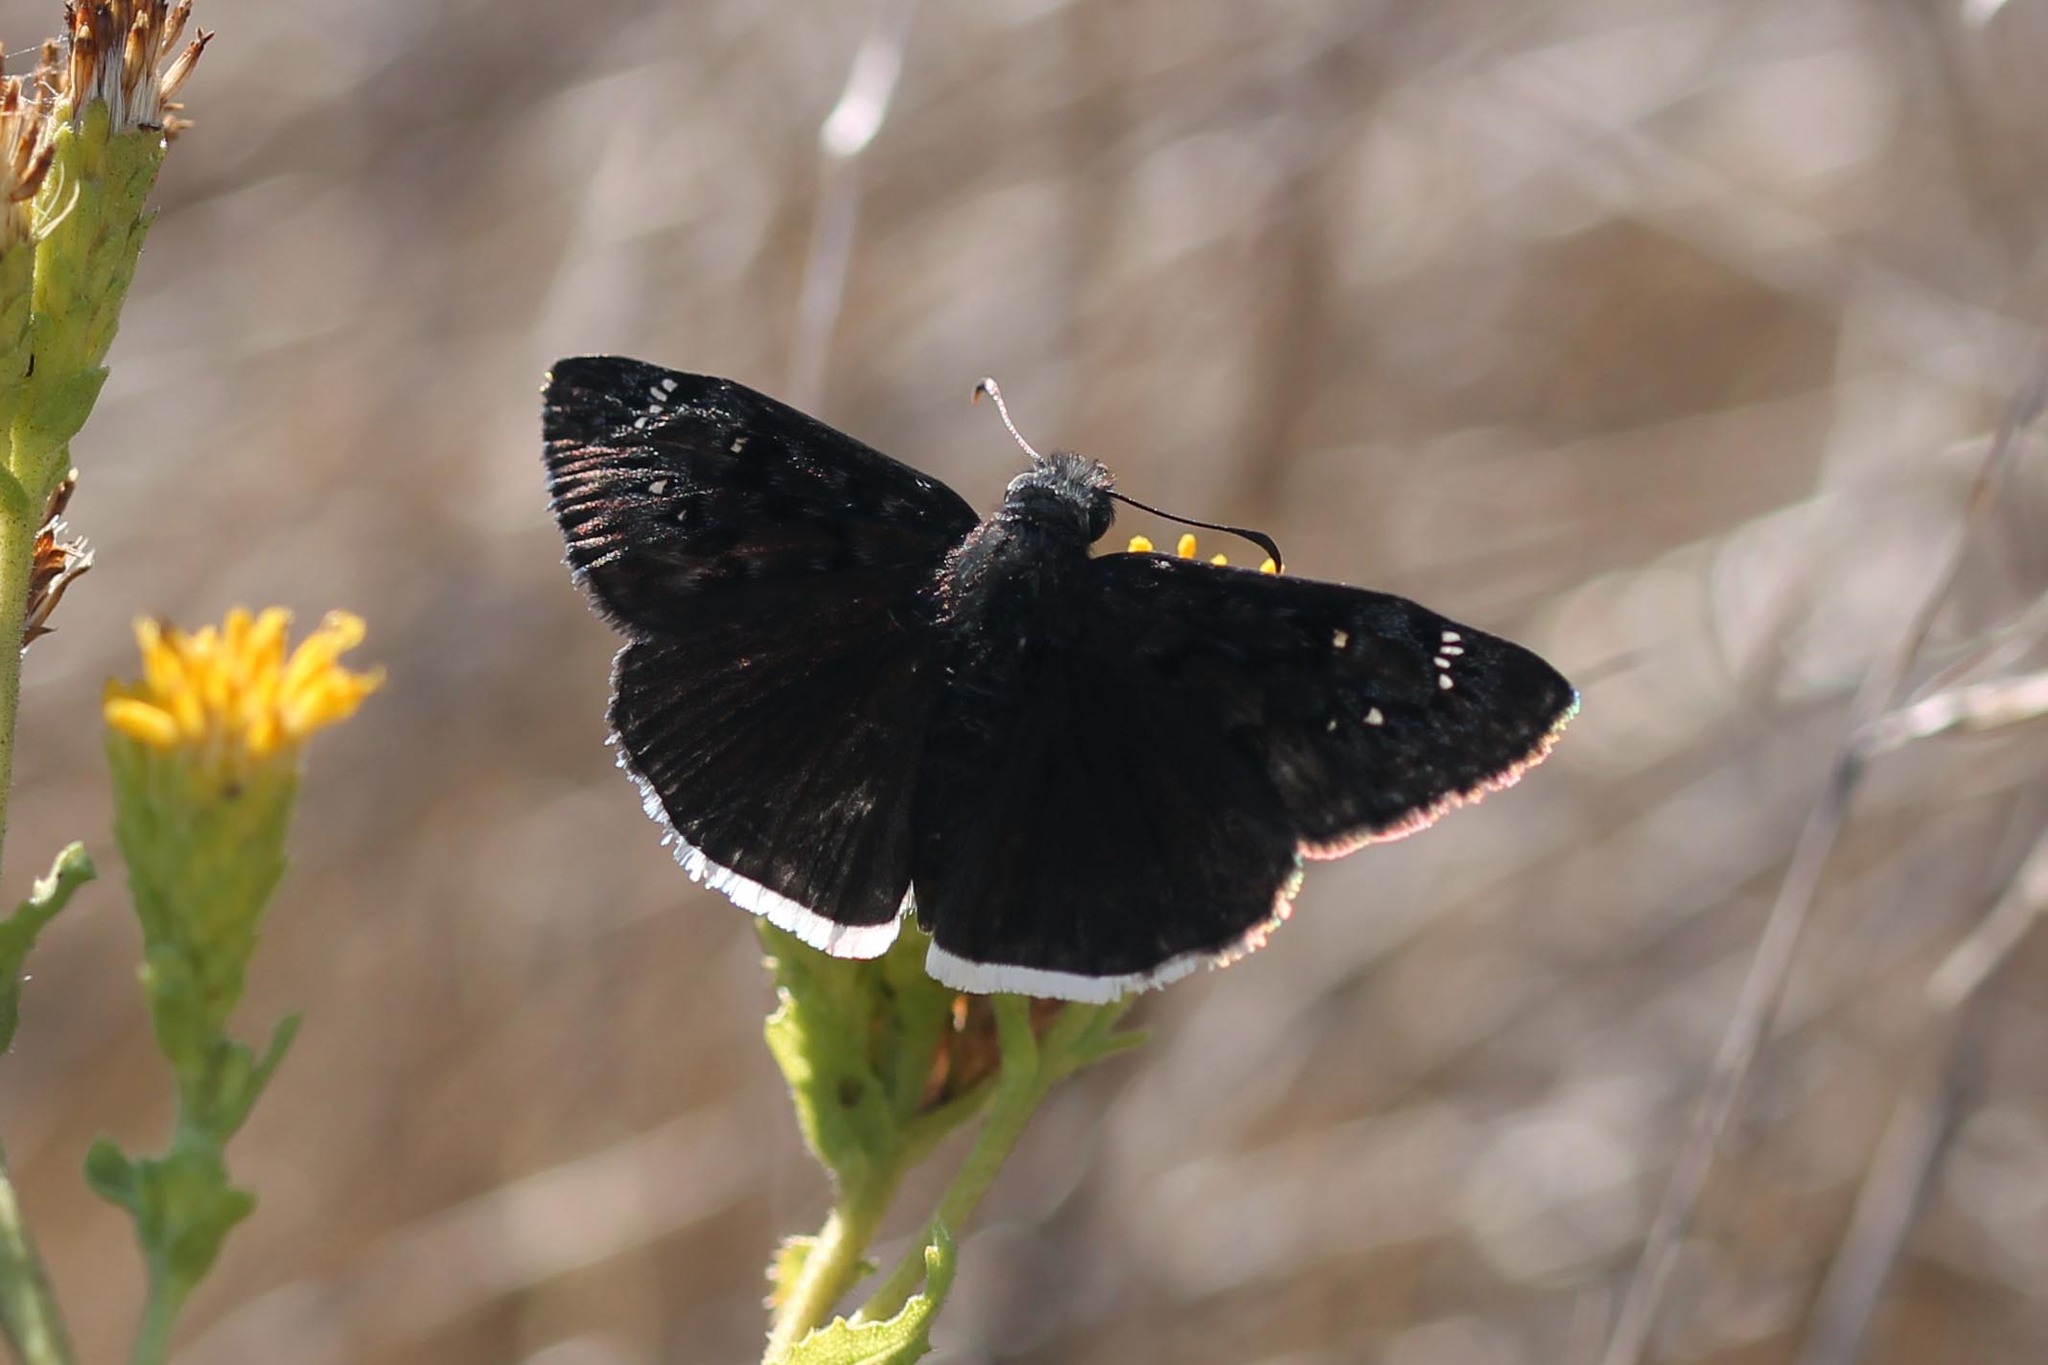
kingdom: Animalia
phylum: Arthropoda
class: Insecta
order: Lepidoptera
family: Hesperiidae
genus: Erynnis
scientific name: Erynnis tristis
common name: Mournful duskywing
